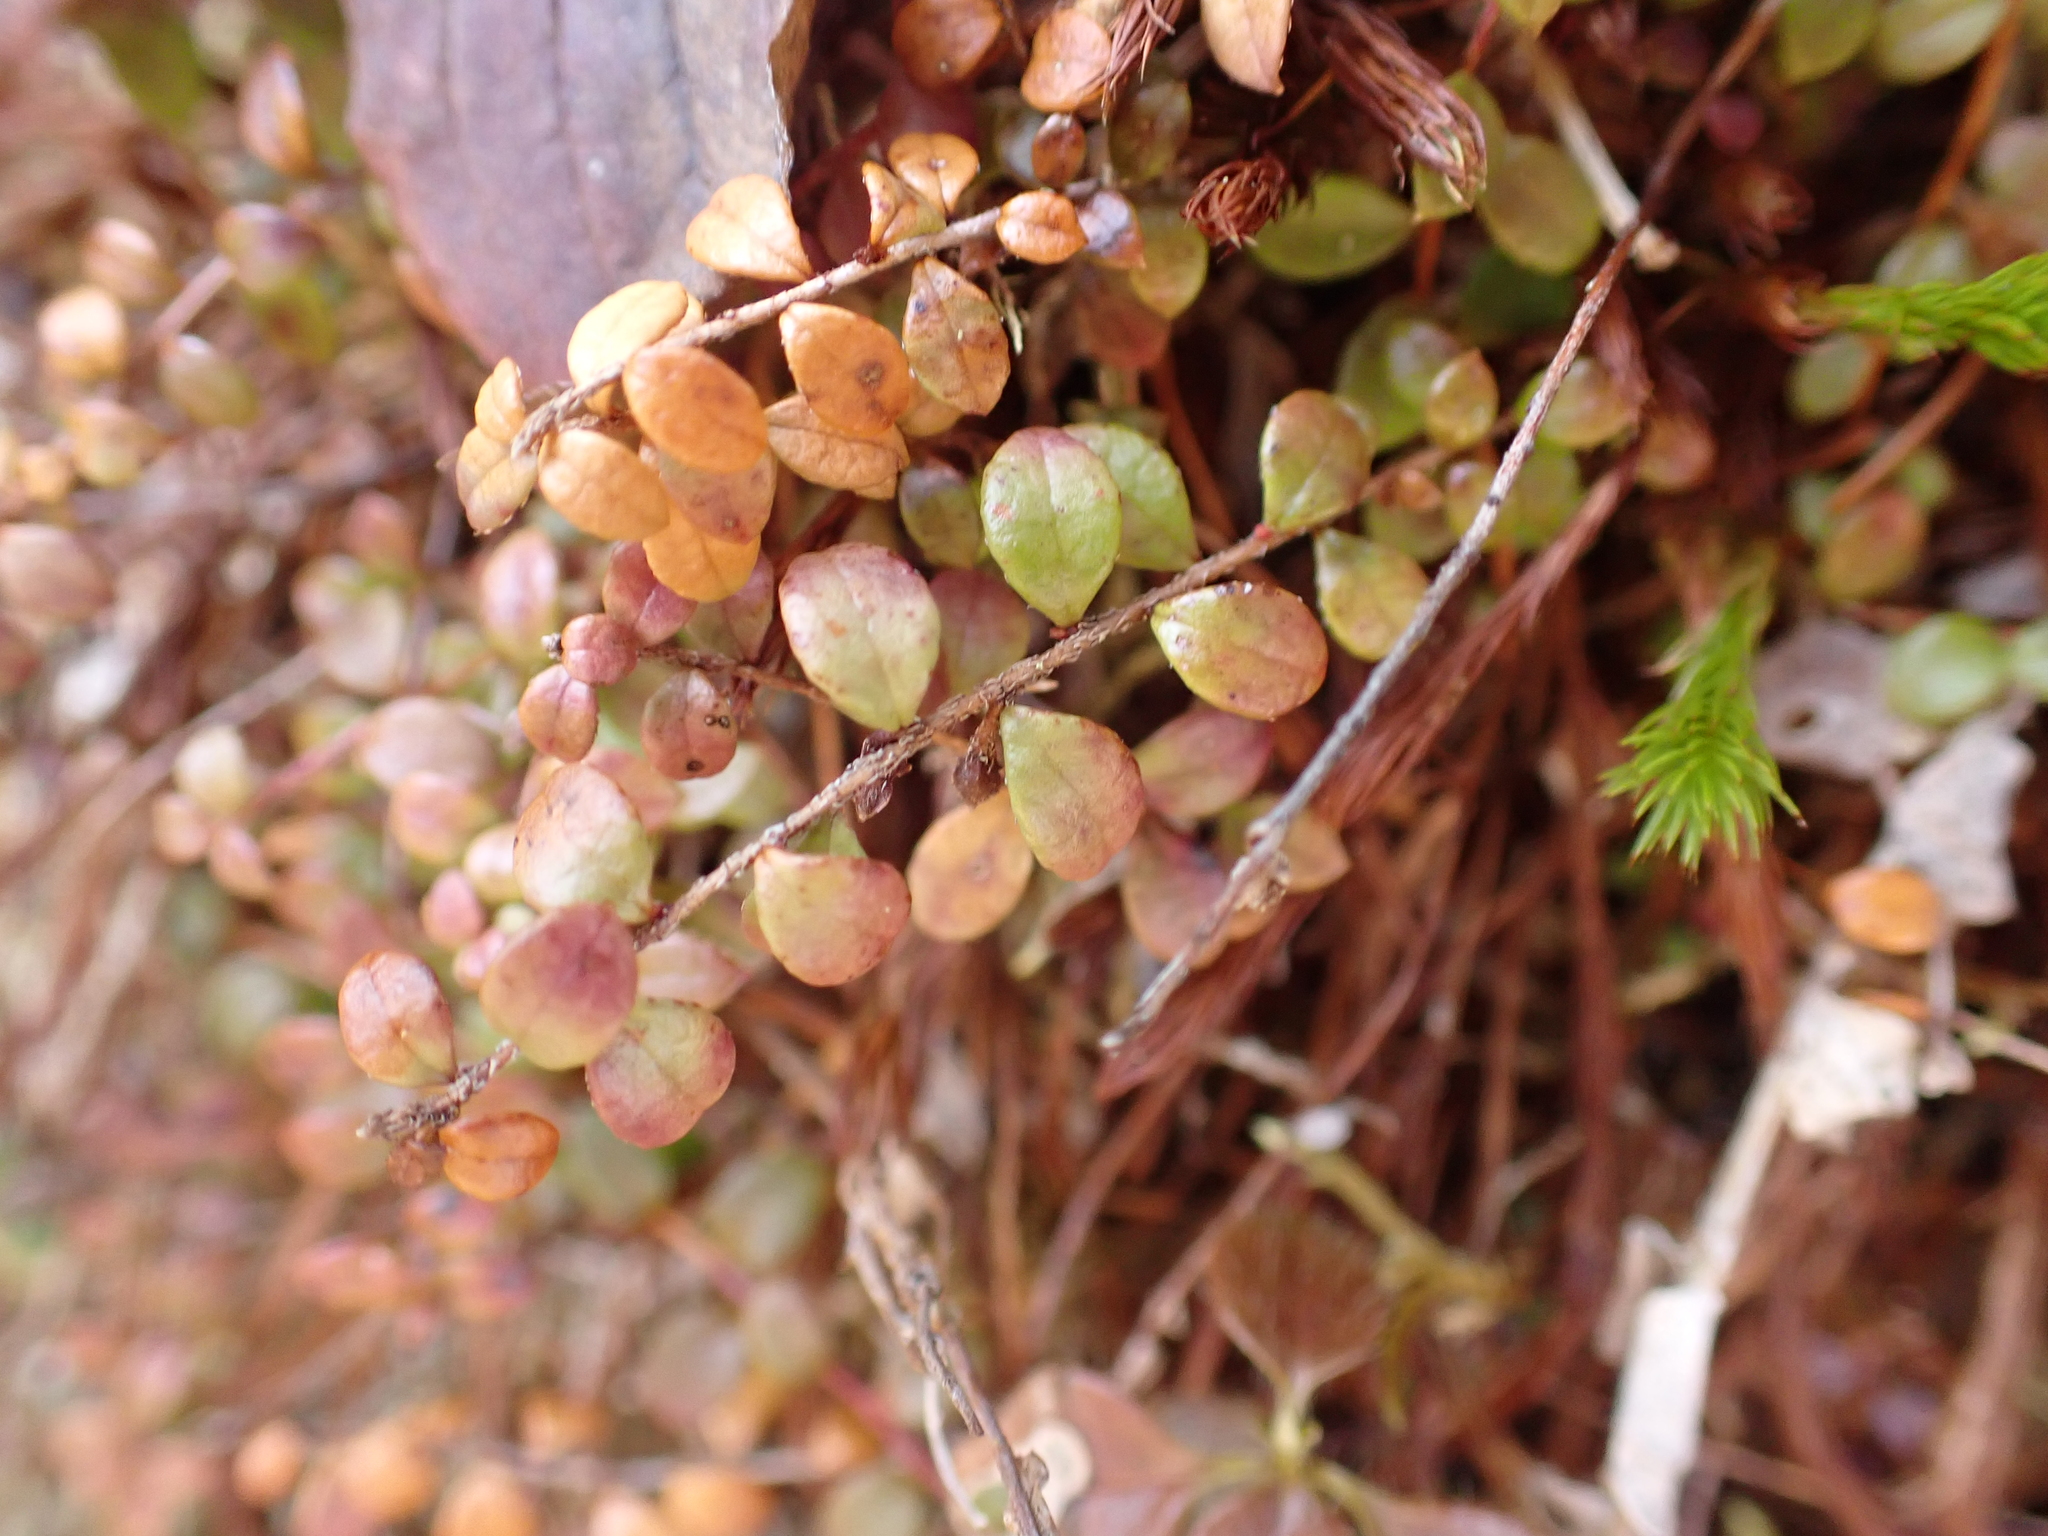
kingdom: Plantae
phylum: Tracheophyta
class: Magnoliopsida
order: Ericales
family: Ericaceae
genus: Gaultheria
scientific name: Gaultheria hispidula
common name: Cancer wintergreen
